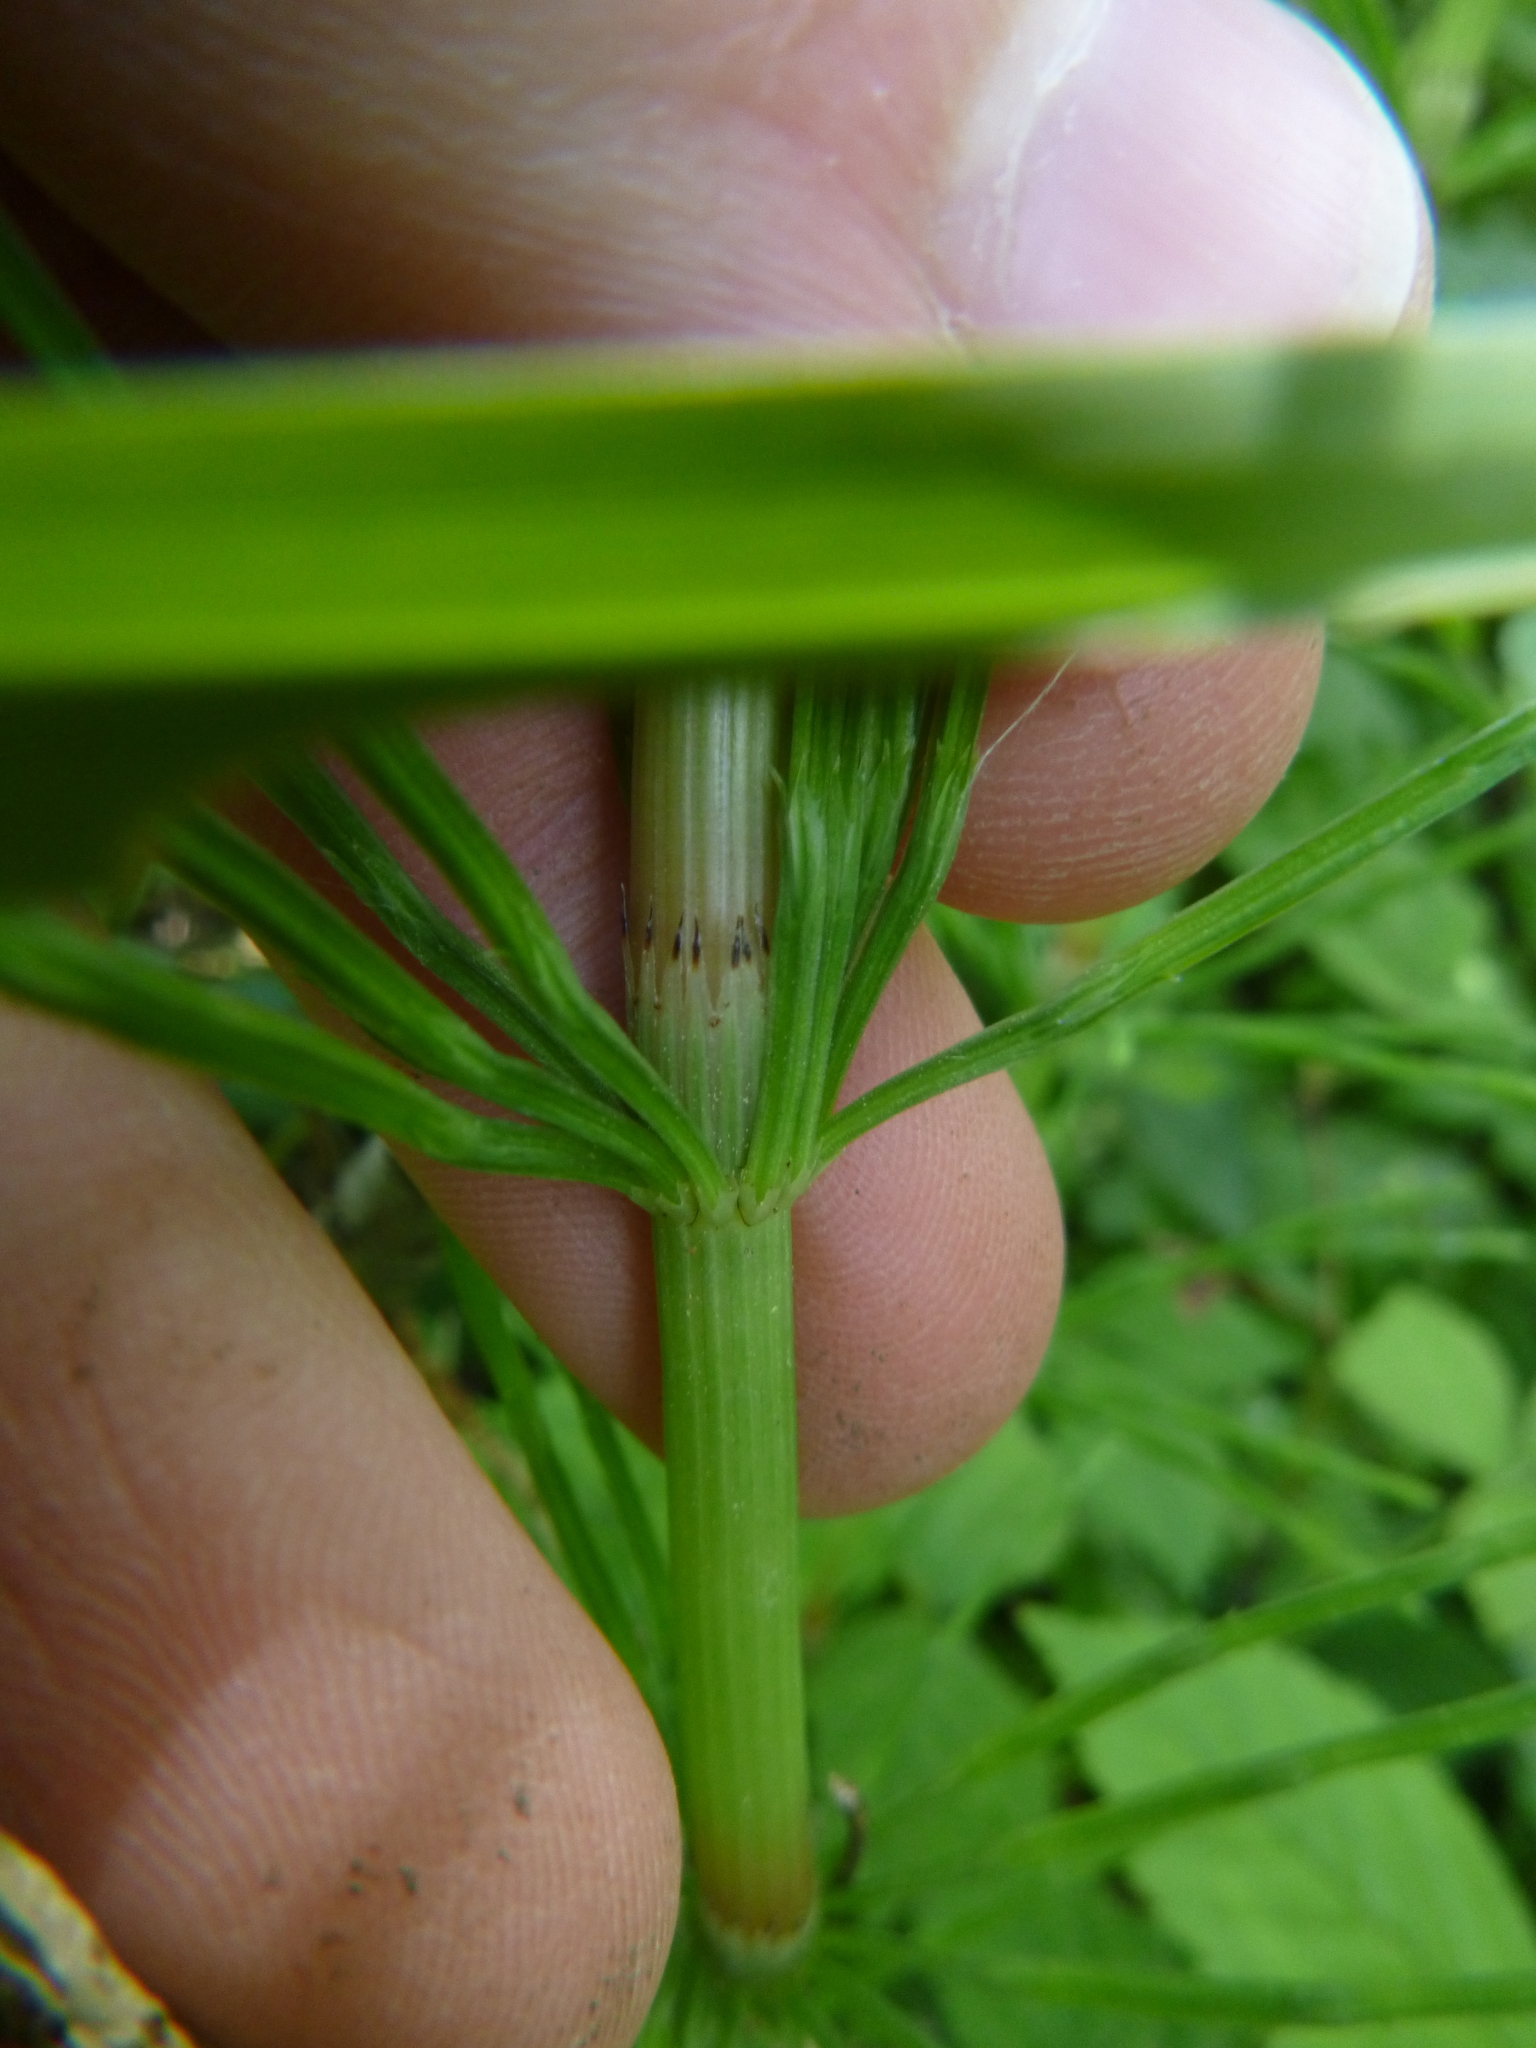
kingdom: Plantae
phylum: Tracheophyta
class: Polypodiopsida
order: Equisetales
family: Equisetaceae
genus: Equisetum
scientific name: Equisetum arvense
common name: Field horsetail
